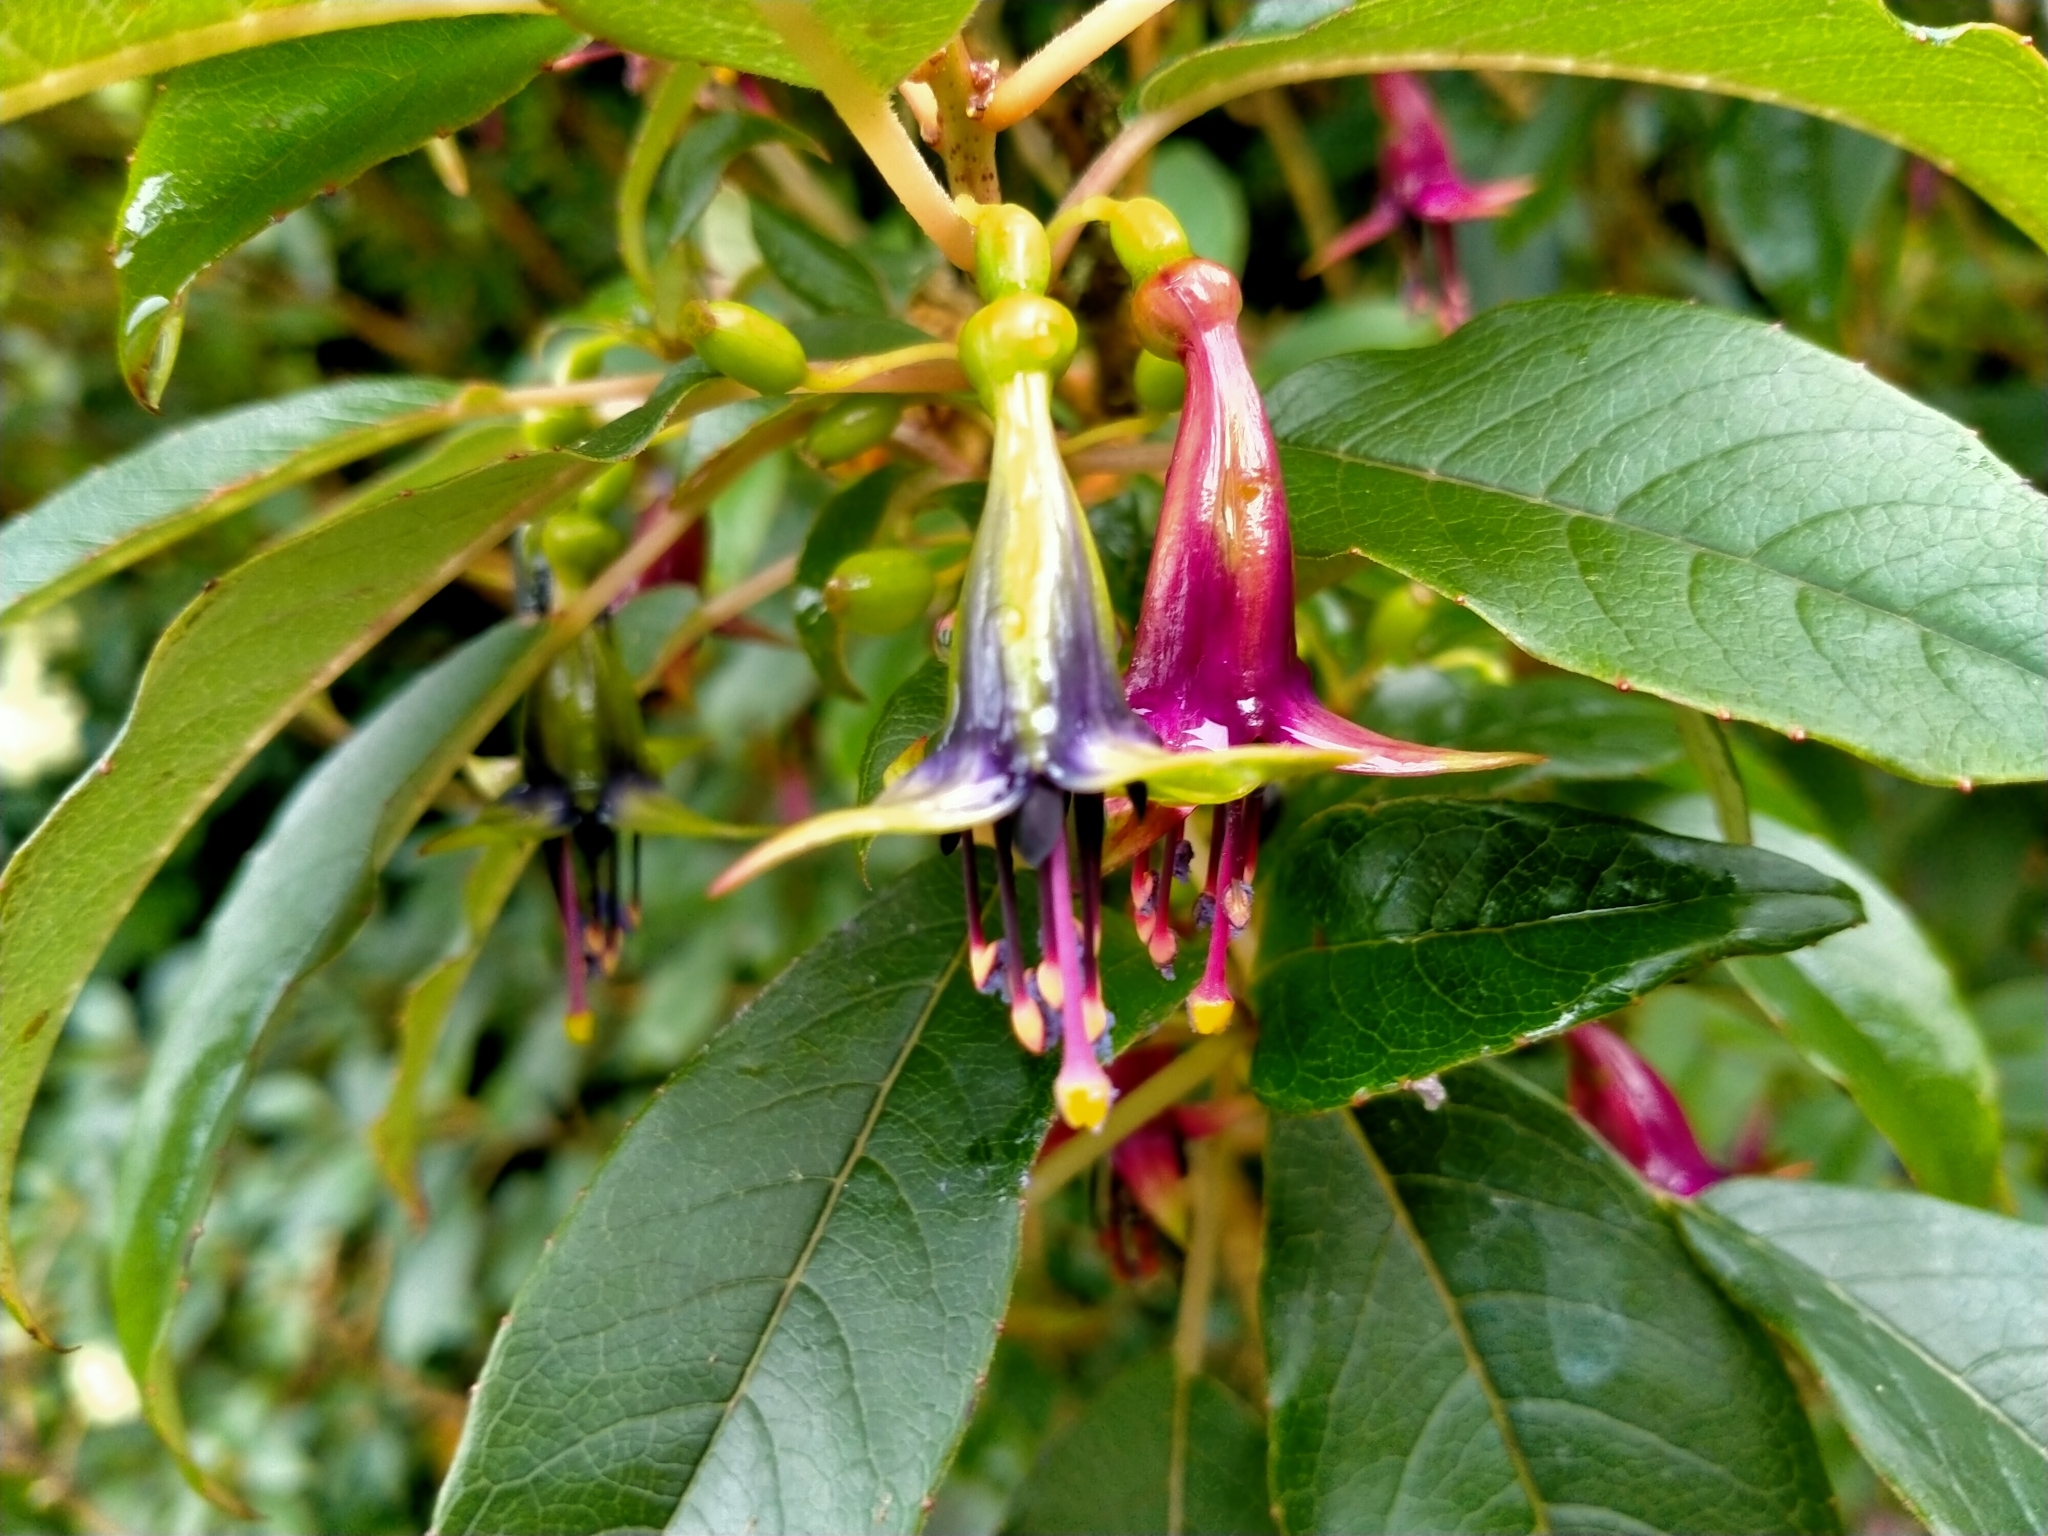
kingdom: Plantae
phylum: Tracheophyta
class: Magnoliopsida
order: Myrtales
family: Onagraceae
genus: Fuchsia
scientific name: Fuchsia excorticata
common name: Tree fuchsia
